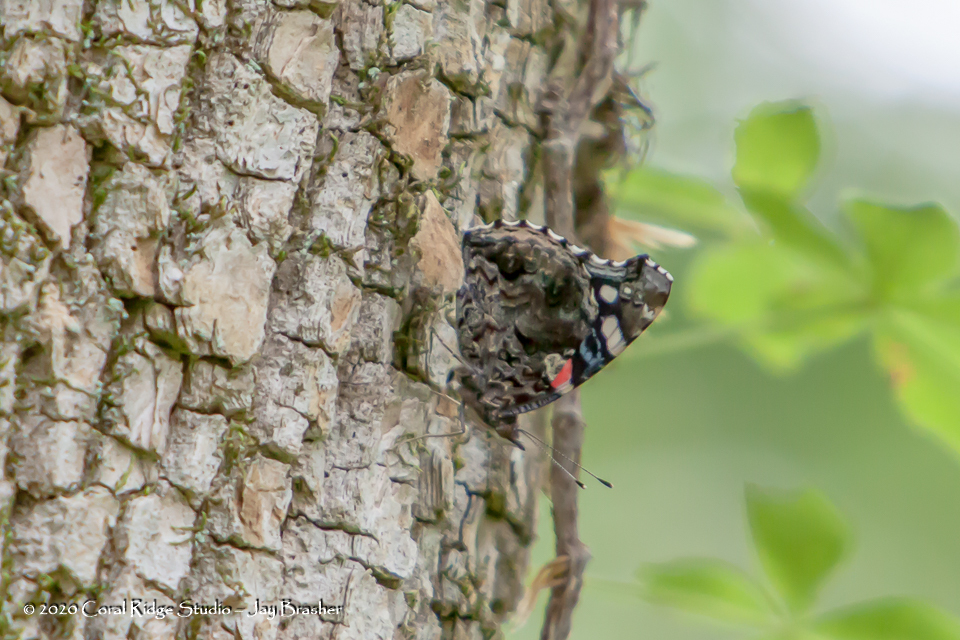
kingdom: Animalia
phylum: Arthropoda
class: Insecta
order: Lepidoptera
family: Nymphalidae
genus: Vanessa
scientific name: Vanessa atalanta
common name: Red admiral
